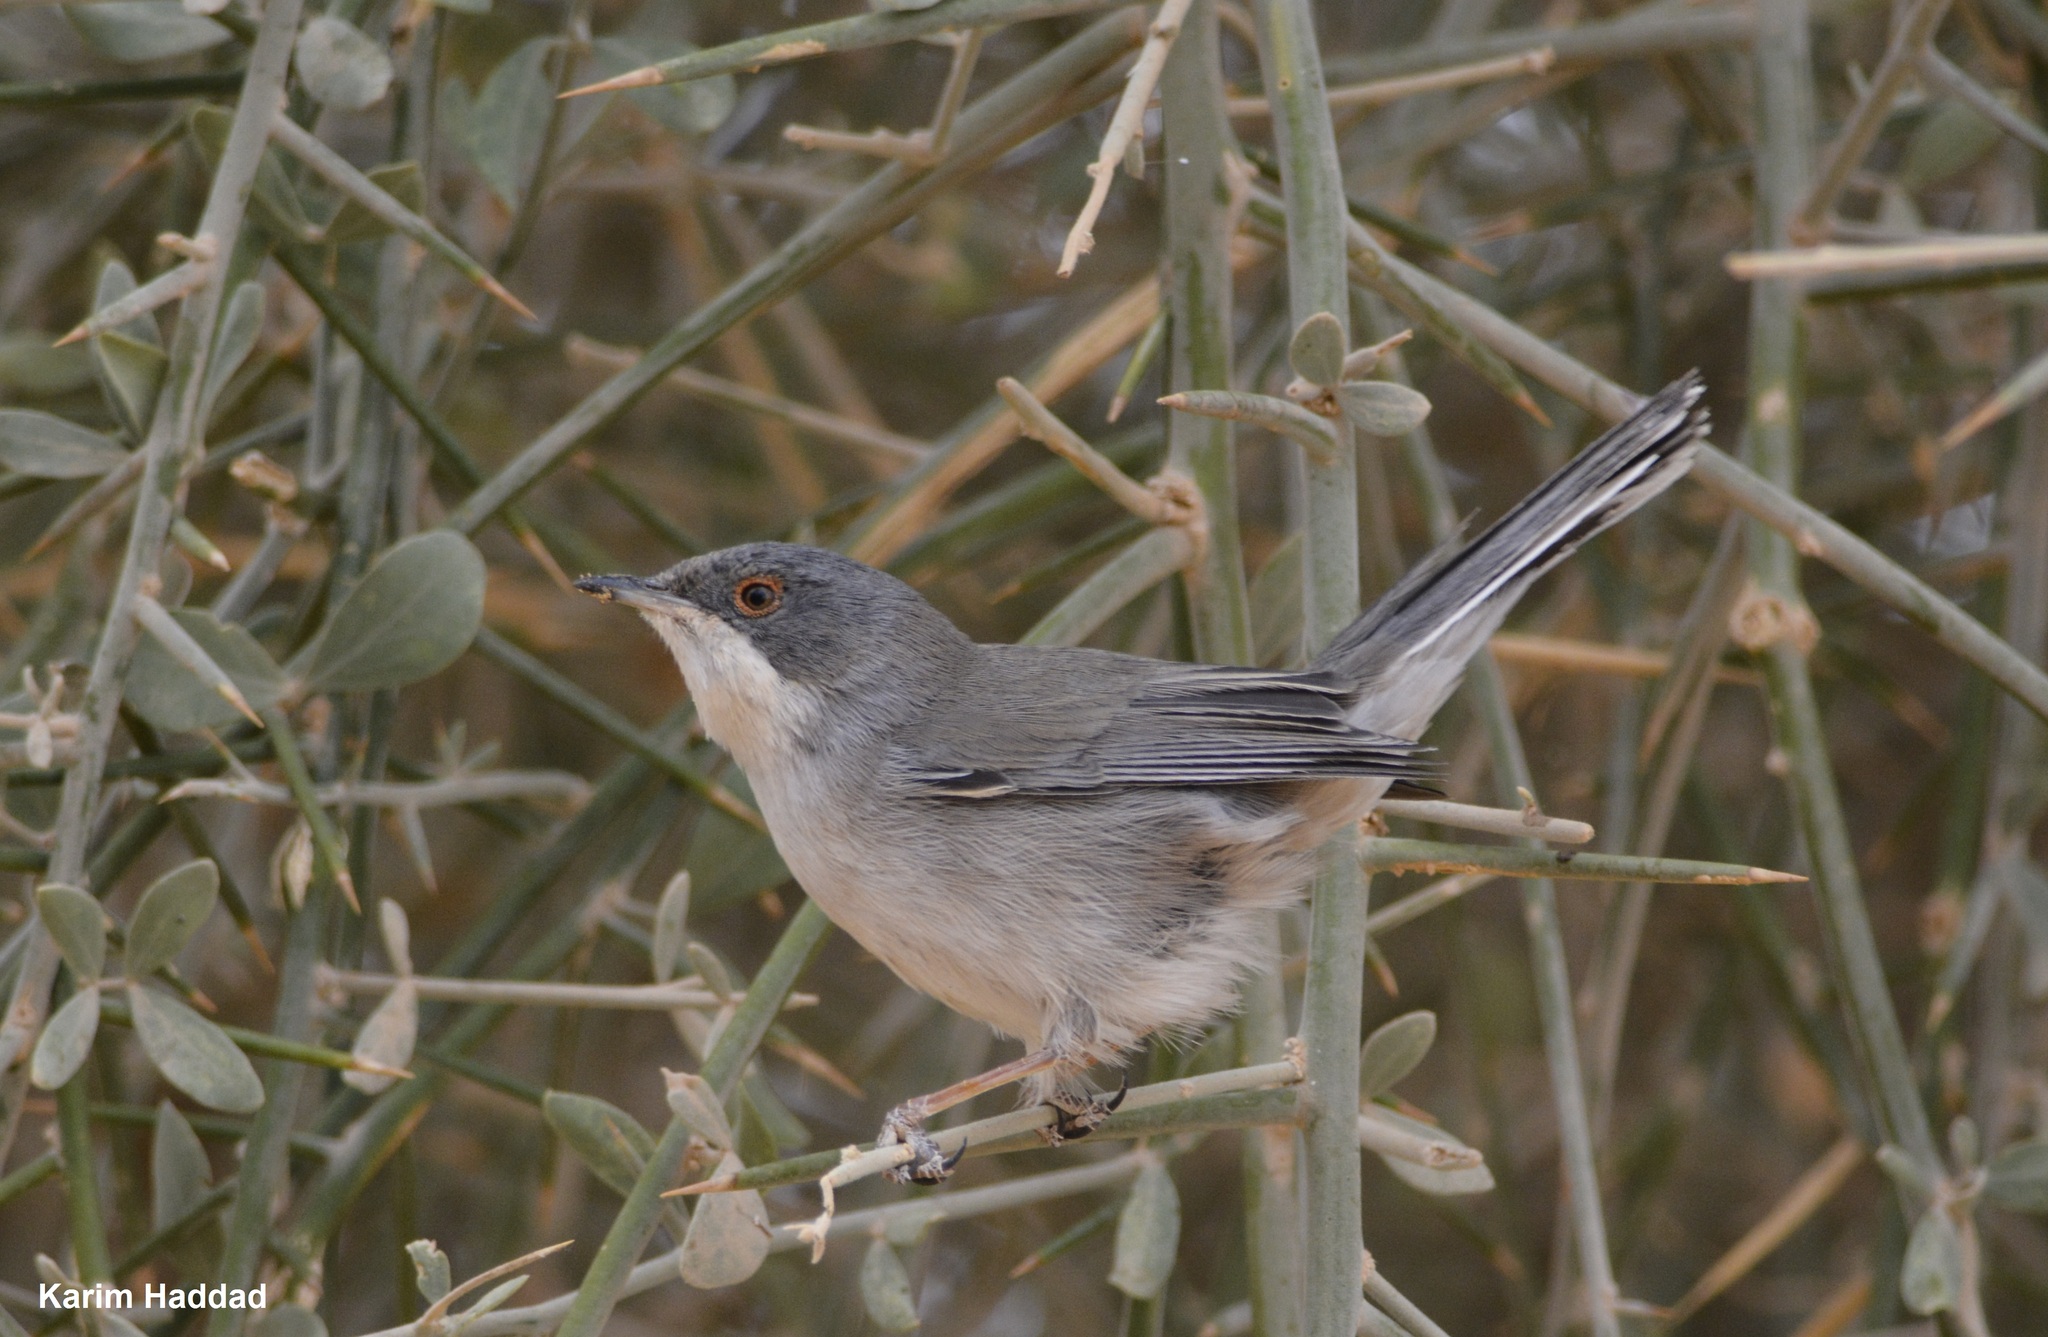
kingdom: Animalia
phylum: Chordata
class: Aves
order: Passeriformes
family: Sylviidae
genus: Curruca
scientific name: Curruca melanocephala
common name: Sardinian warbler
